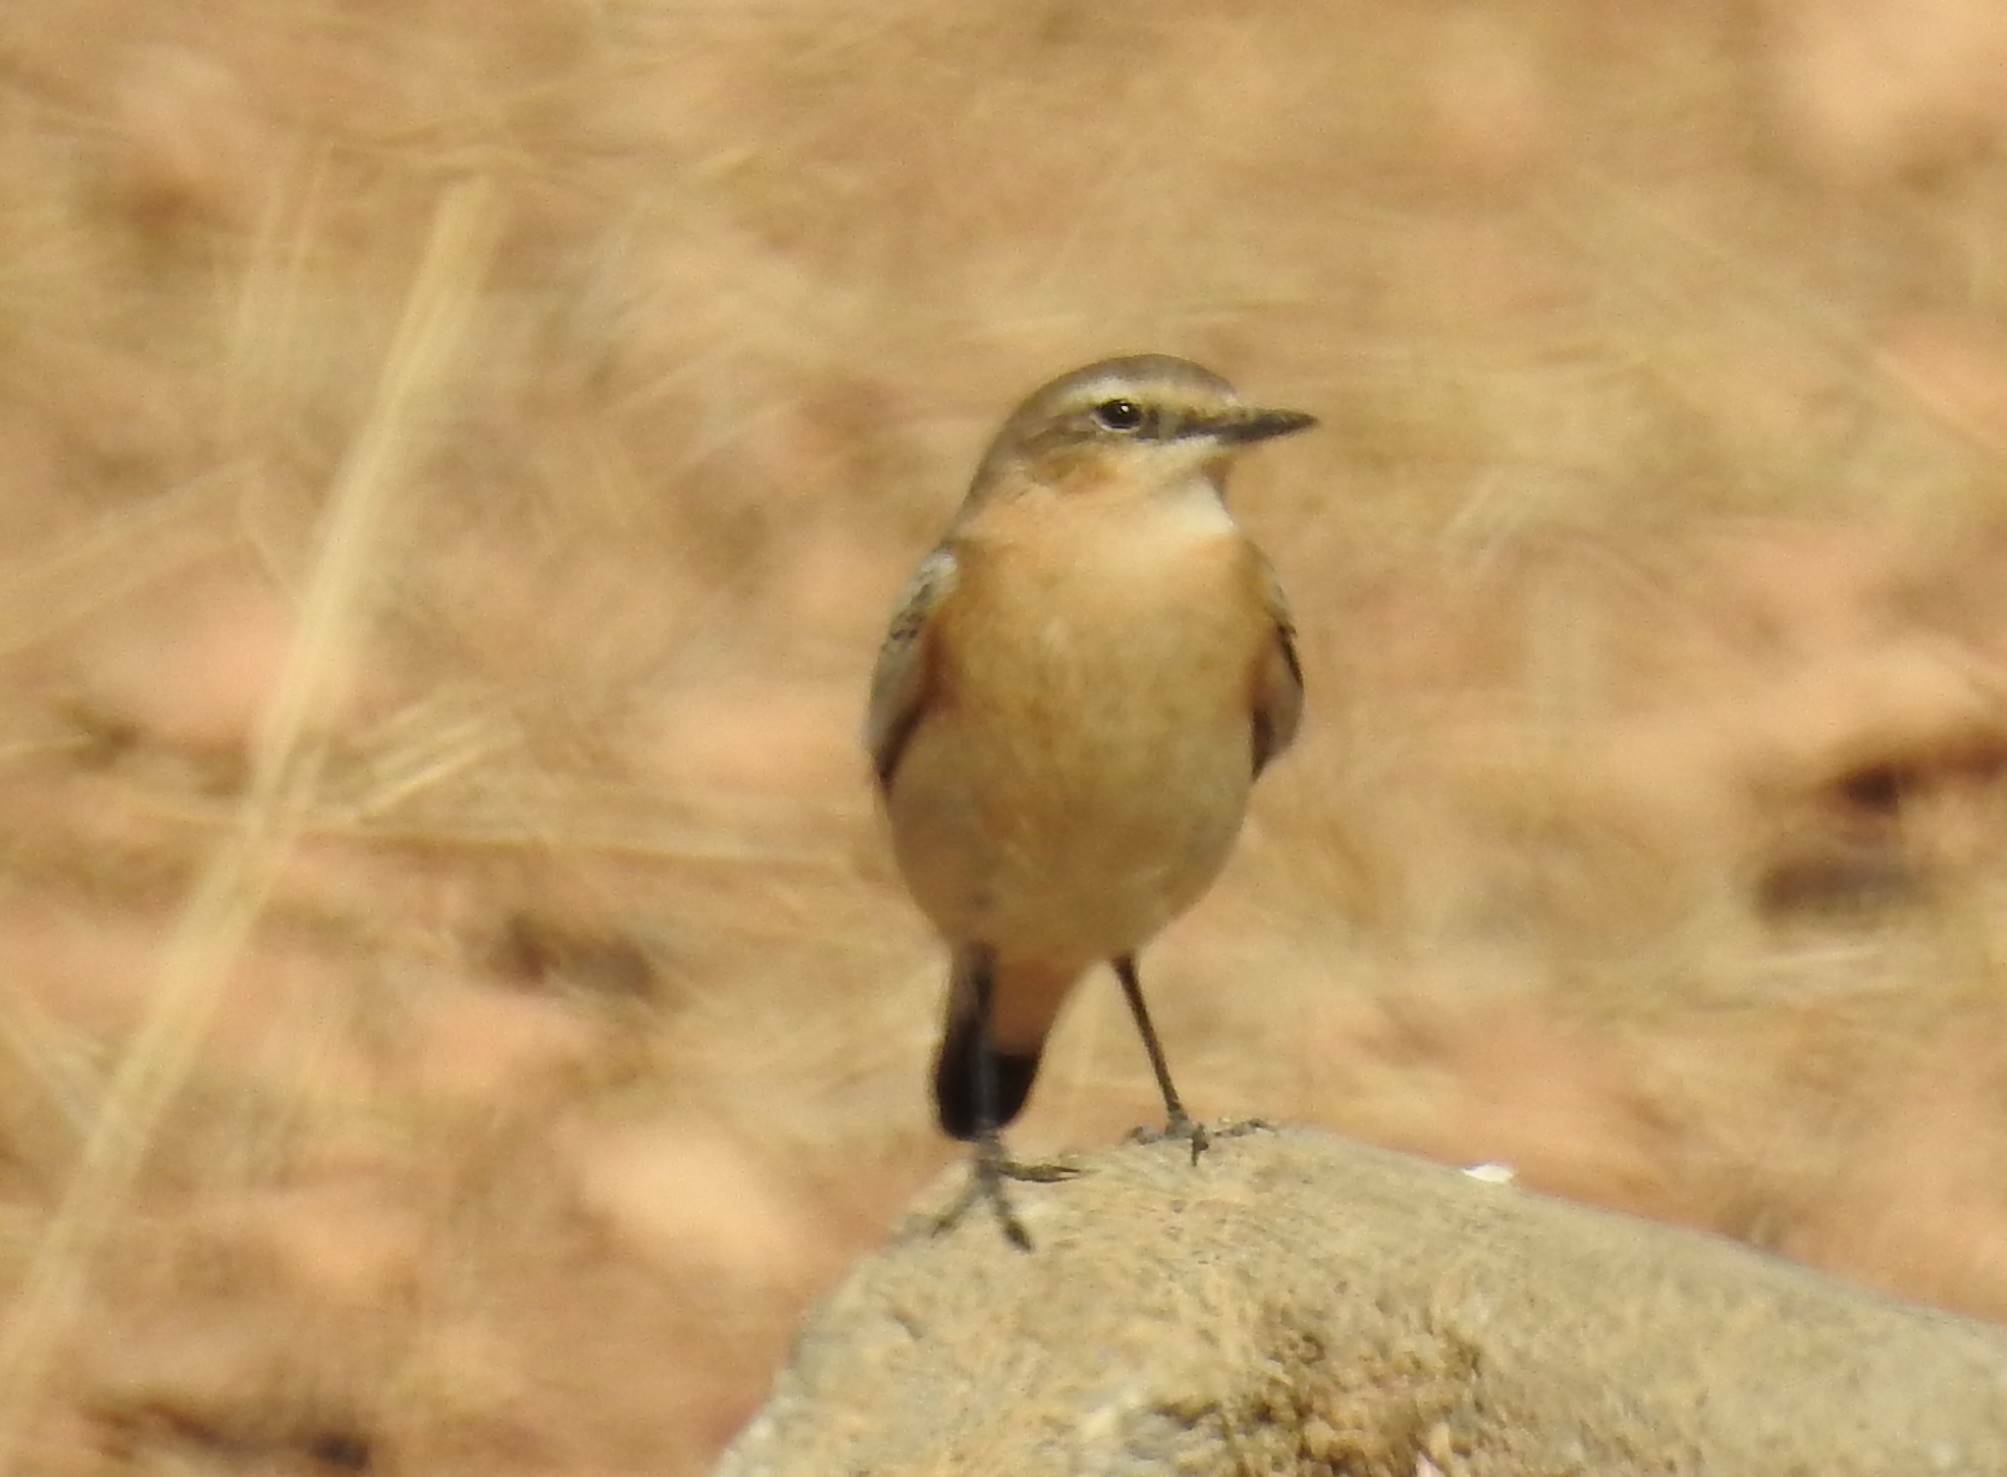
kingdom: Animalia
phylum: Chordata
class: Aves
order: Passeriformes
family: Muscicapidae
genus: Oenanthe
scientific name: Oenanthe hispanica
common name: Black-eared wheatear
